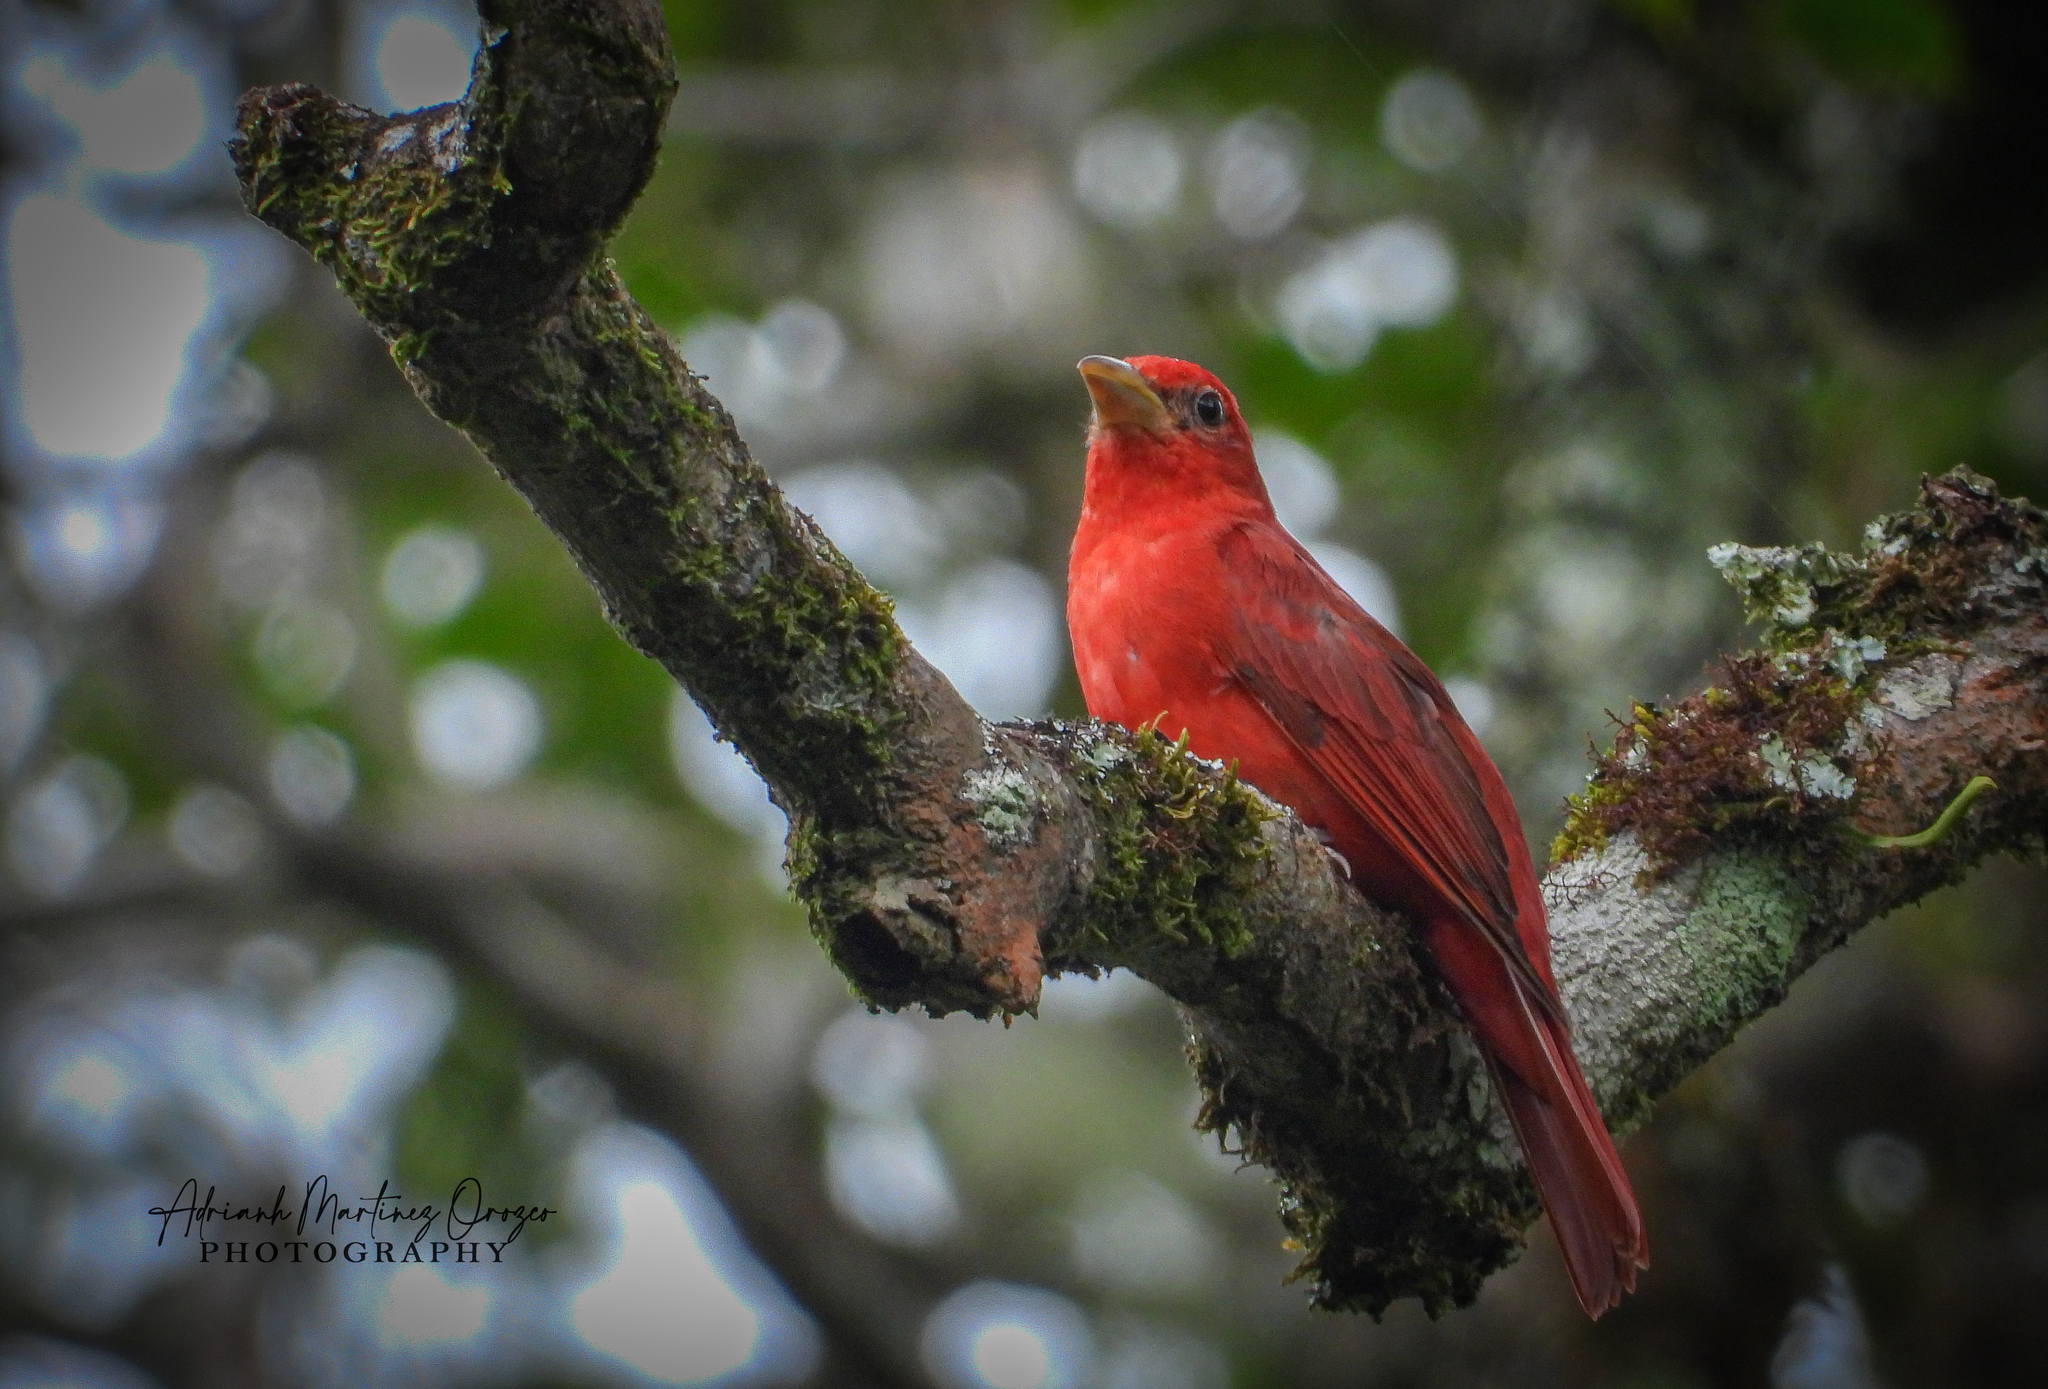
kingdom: Animalia
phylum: Chordata
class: Aves
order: Passeriformes
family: Cardinalidae
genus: Piranga
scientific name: Piranga rubra
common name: Summer tanager
